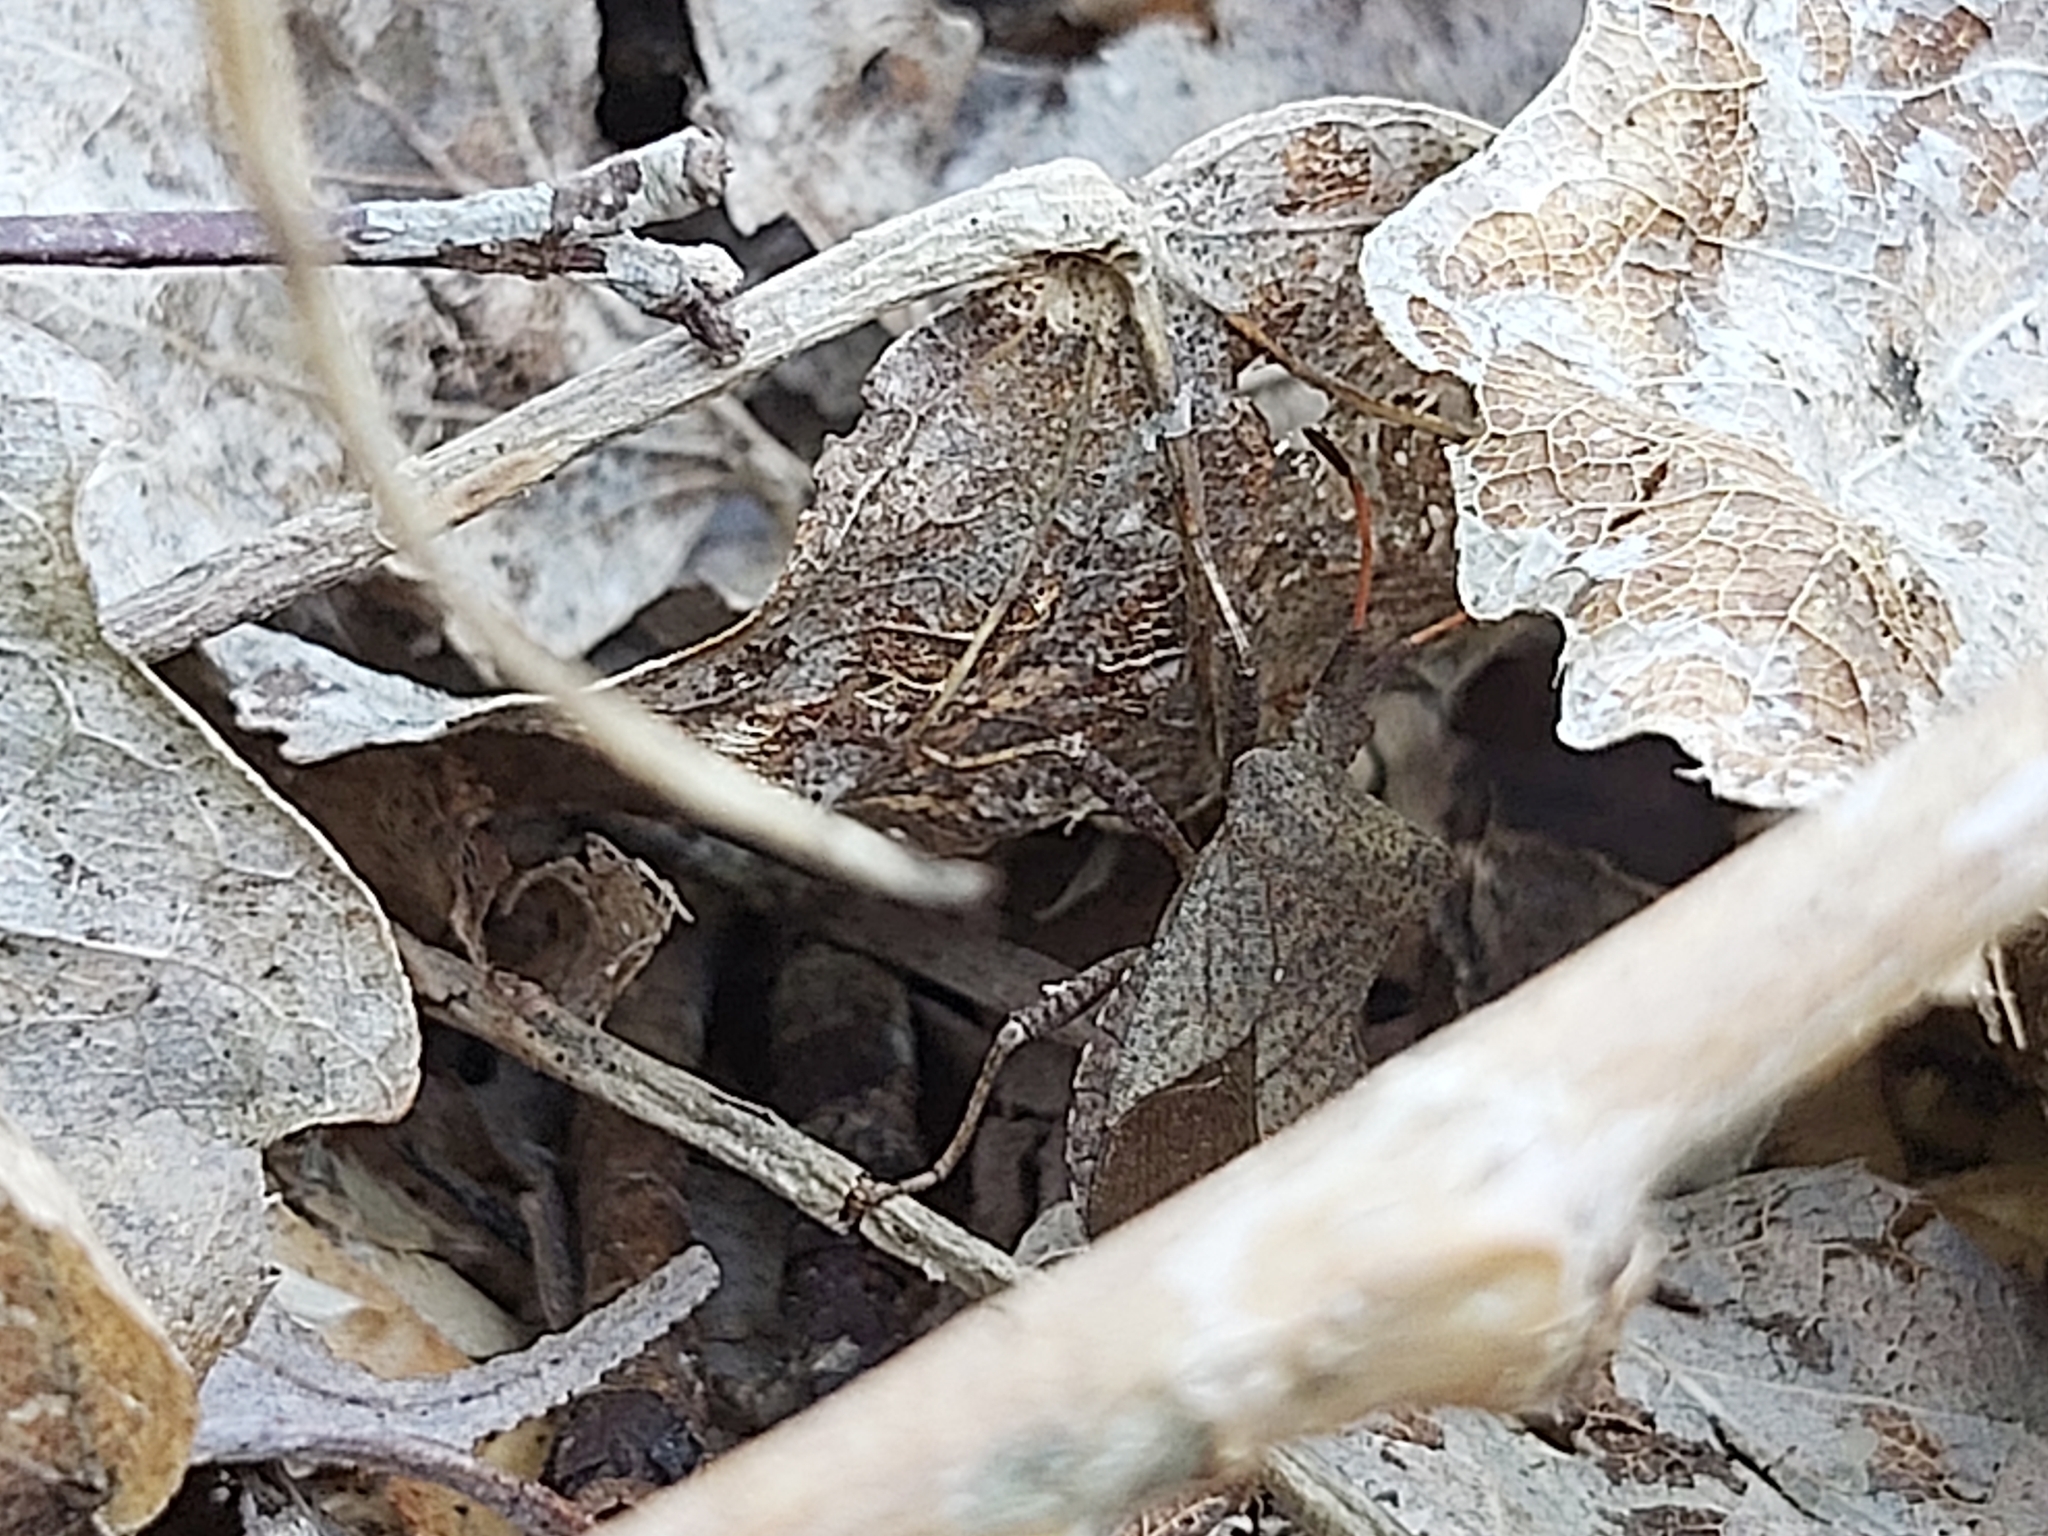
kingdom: Animalia
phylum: Arthropoda
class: Insecta
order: Hemiptera
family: Coreidae
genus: Coreus
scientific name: Coreus marginatus
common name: Dock bug
